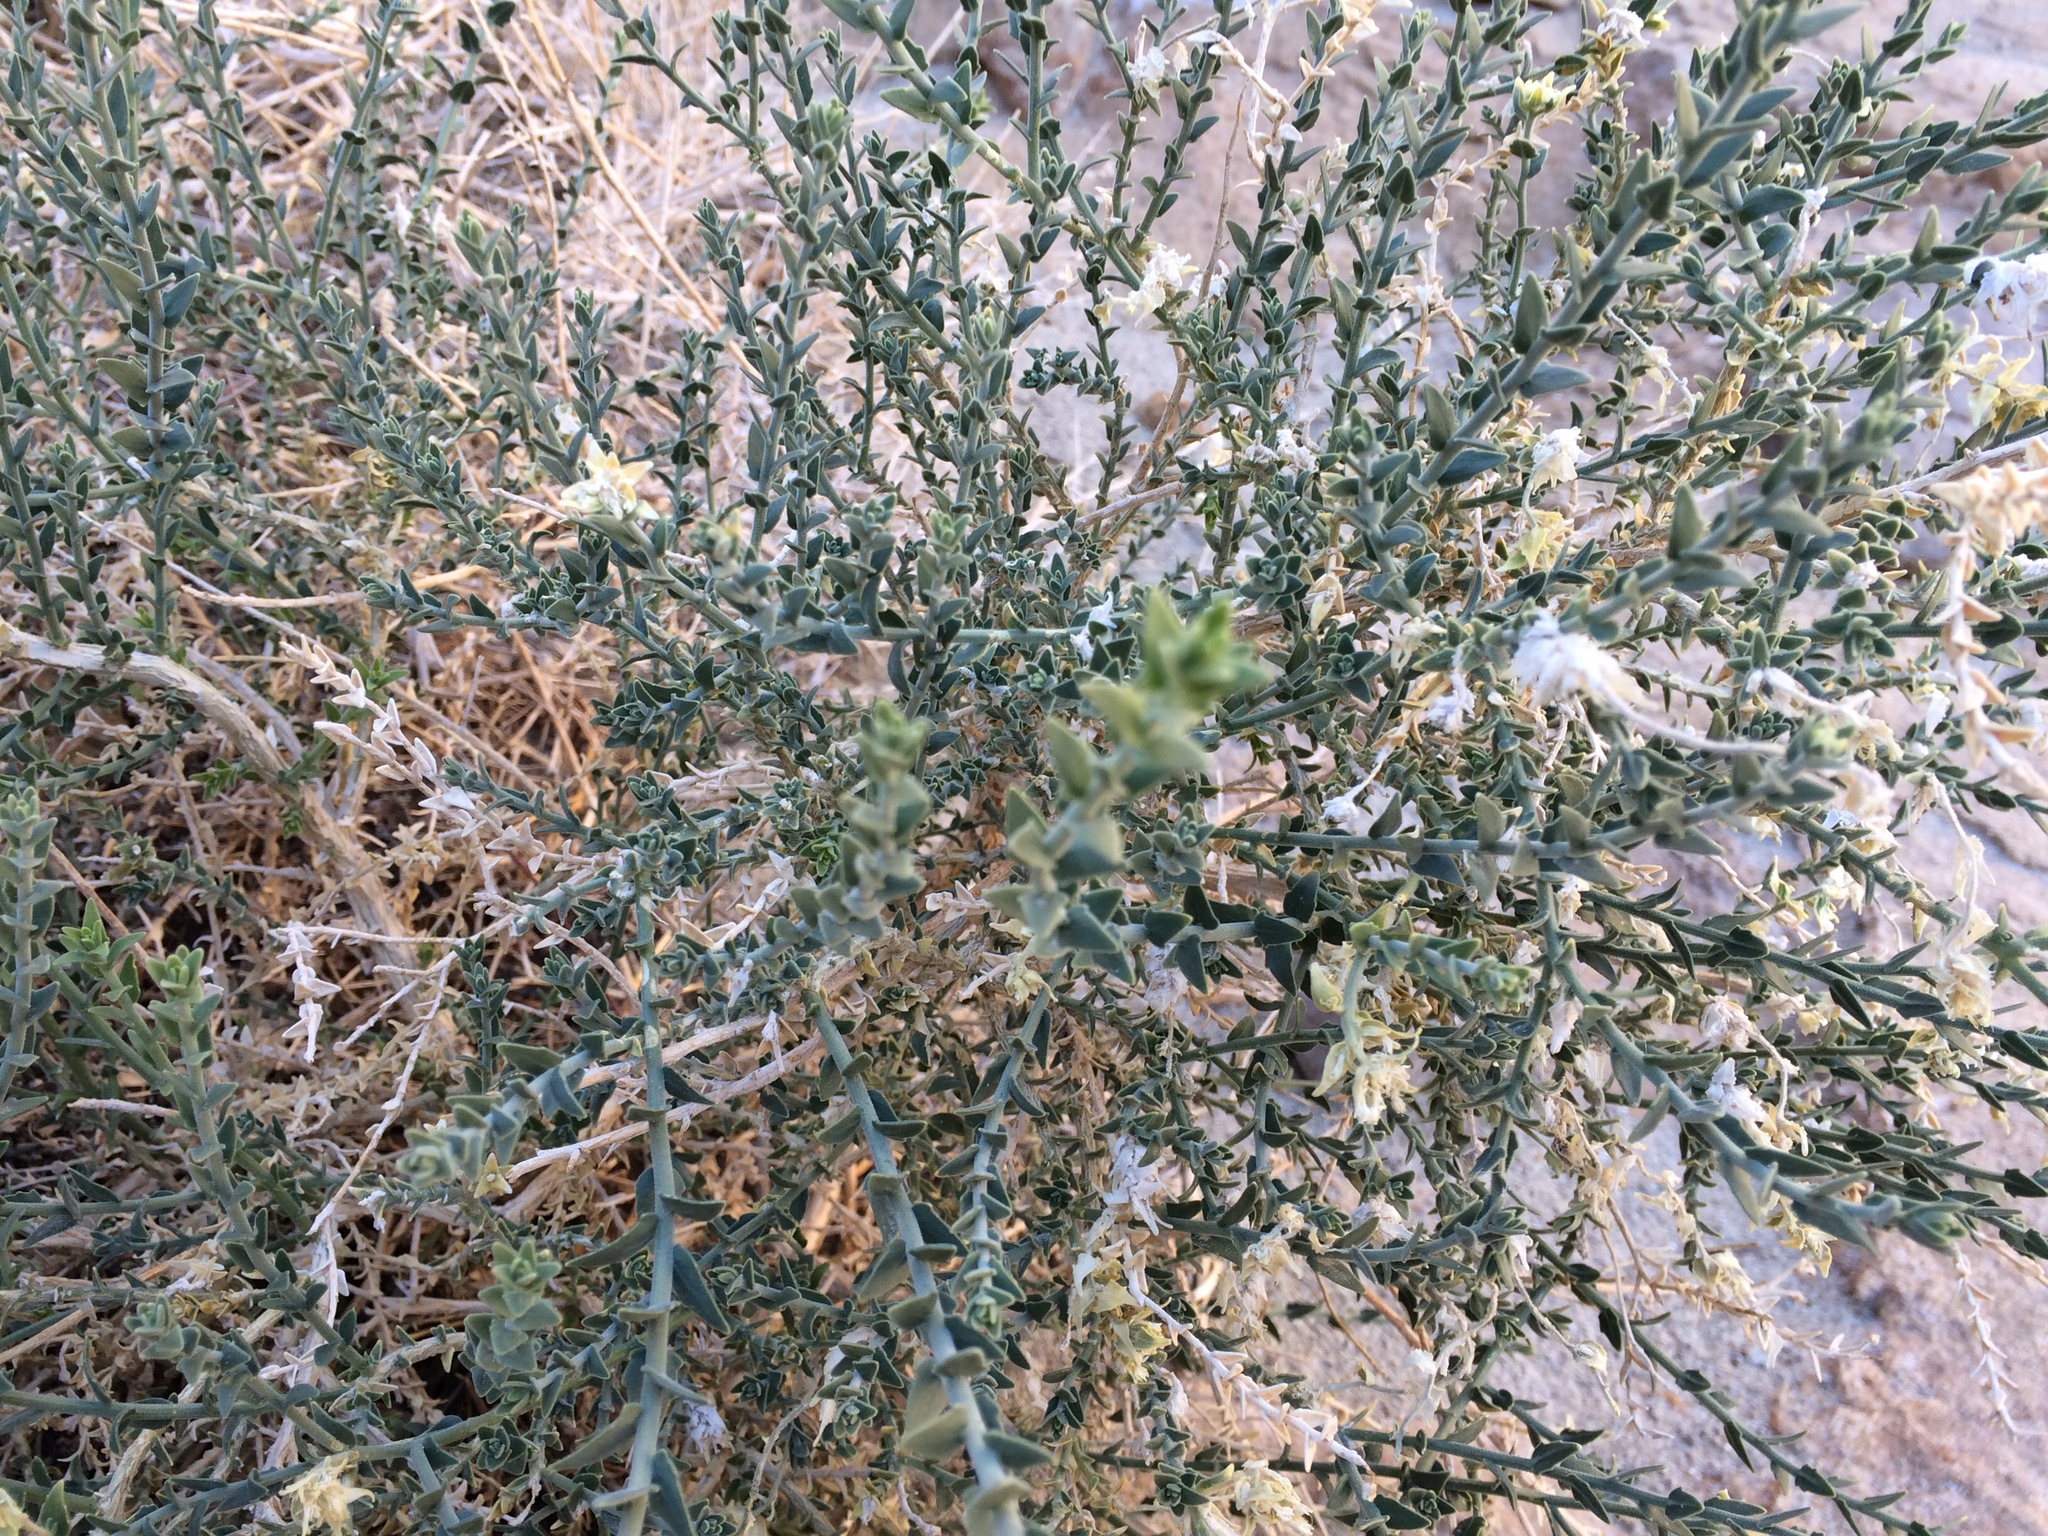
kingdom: Plantae
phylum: Tracheophyta
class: Magnoliopsida
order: Cornales
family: Loasaceae
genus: Petalonyx
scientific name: Petalonyx thurberi
